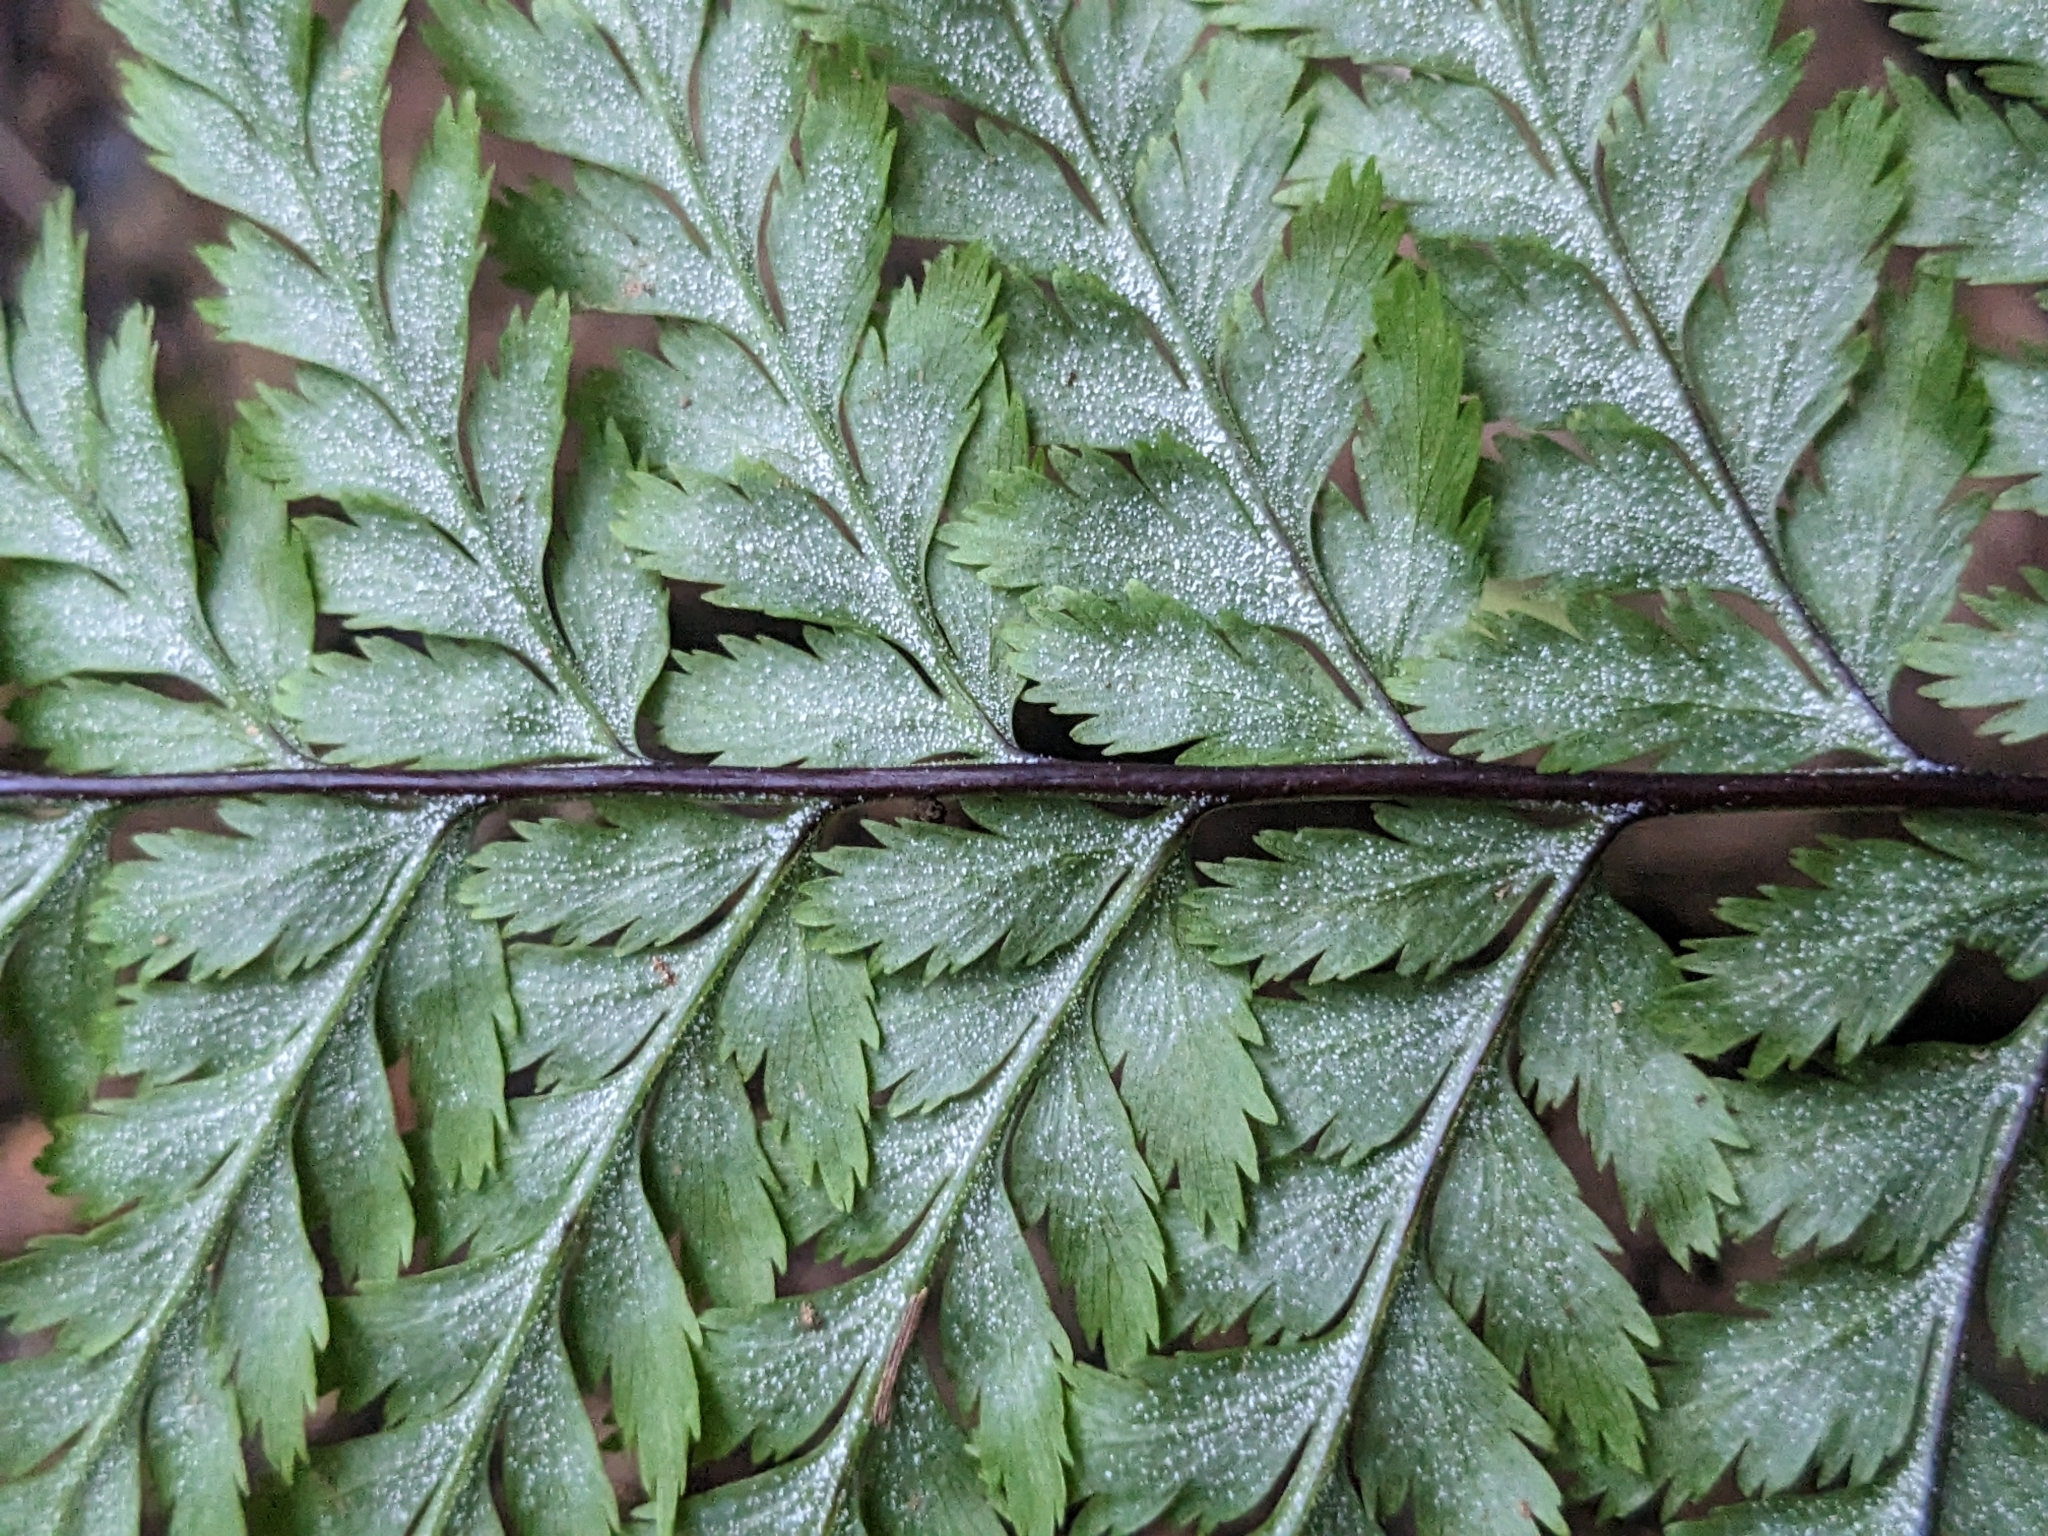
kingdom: Plantae
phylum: Tracheophyta
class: Polypodiopsida
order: Polypodiales
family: Pteridaceae
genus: Pityrogramma
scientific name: Pityrogramma calomelanos
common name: Dixie silverback fern
